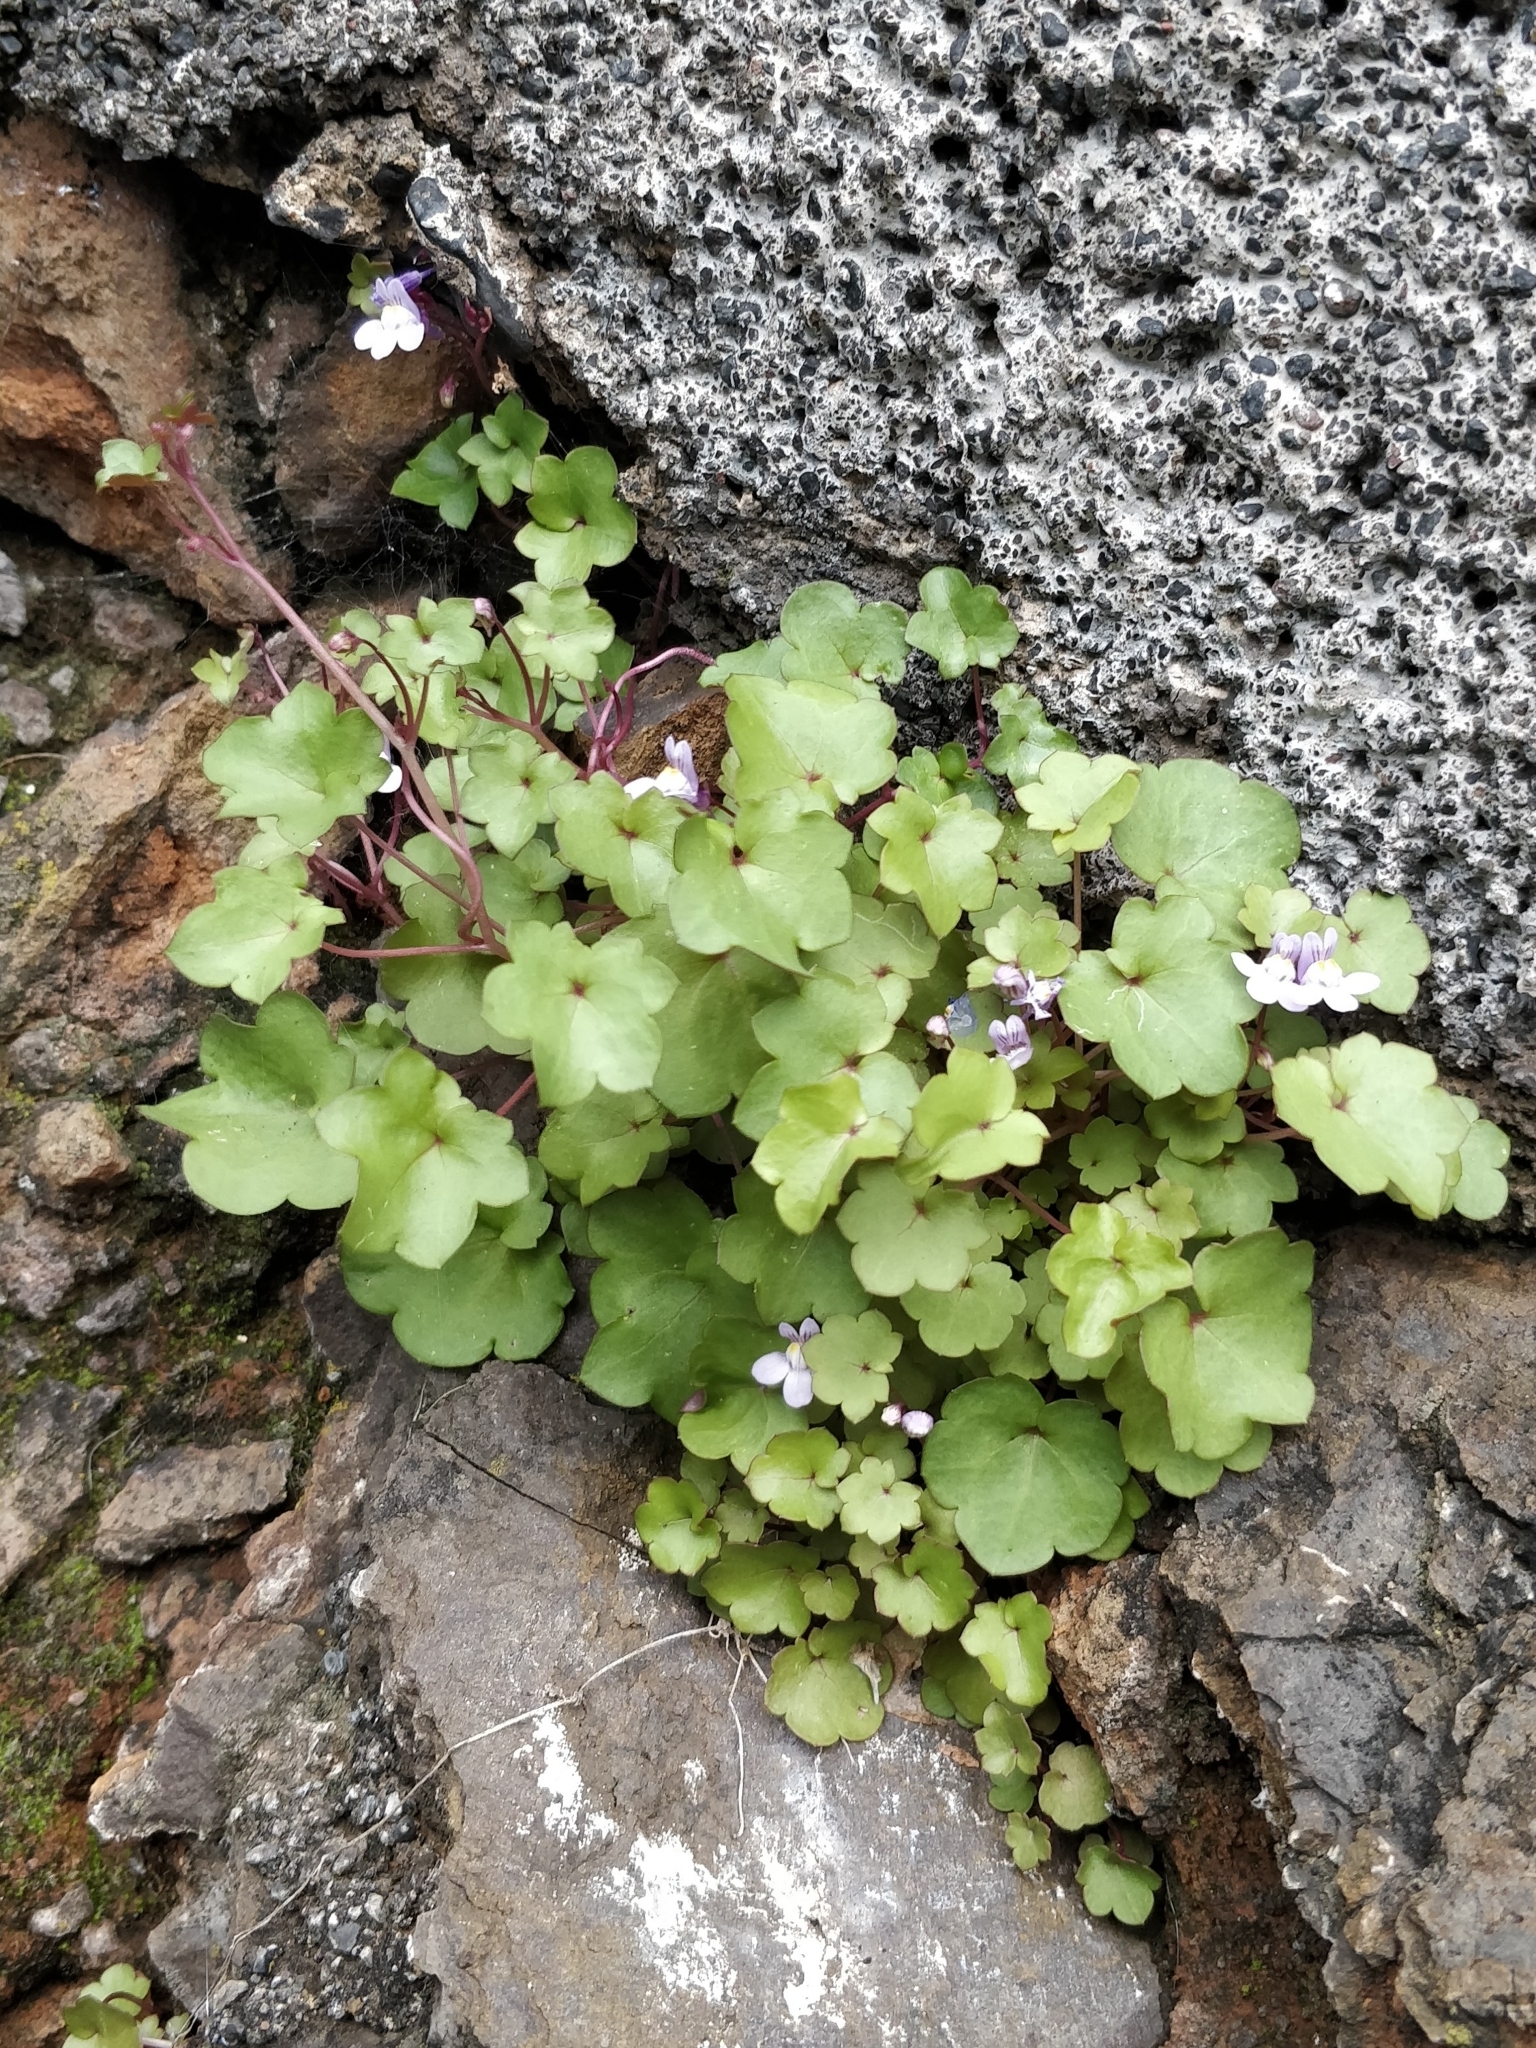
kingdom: Plantae
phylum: Tracheophyta
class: Magnoliopsida
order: Lamiales
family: Plantaginaceae
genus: Cymbalaria
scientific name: Cymbalaria muralis
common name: Ivy-leaved toadflax
